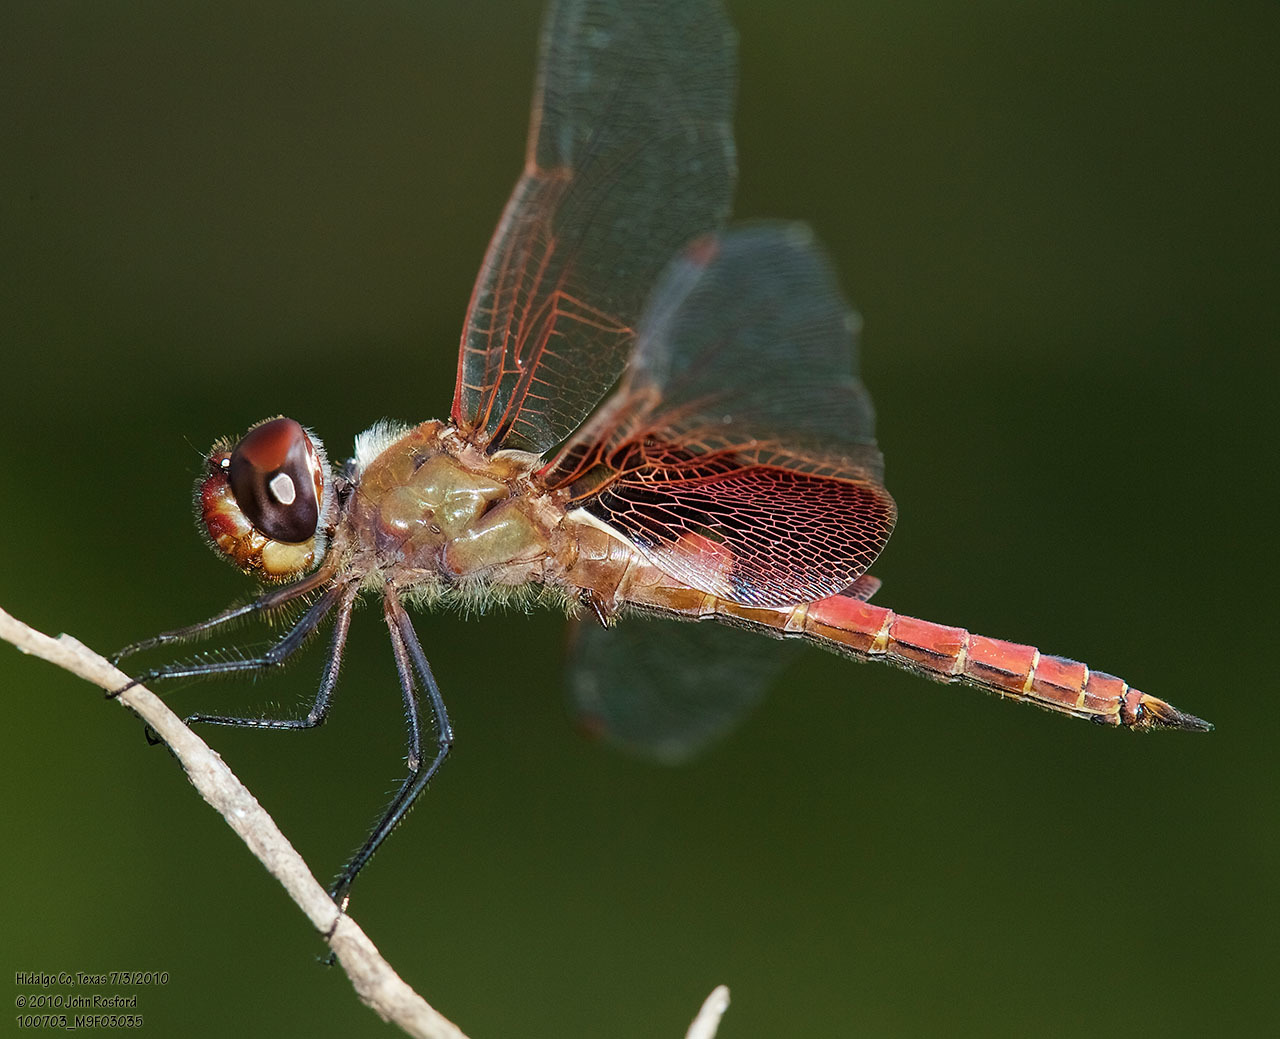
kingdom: Animalia
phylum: Arthropoda
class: Insecta
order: Odonata
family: Libellulidae
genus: Tramea
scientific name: Tramea onusta
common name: Red saddlebags
